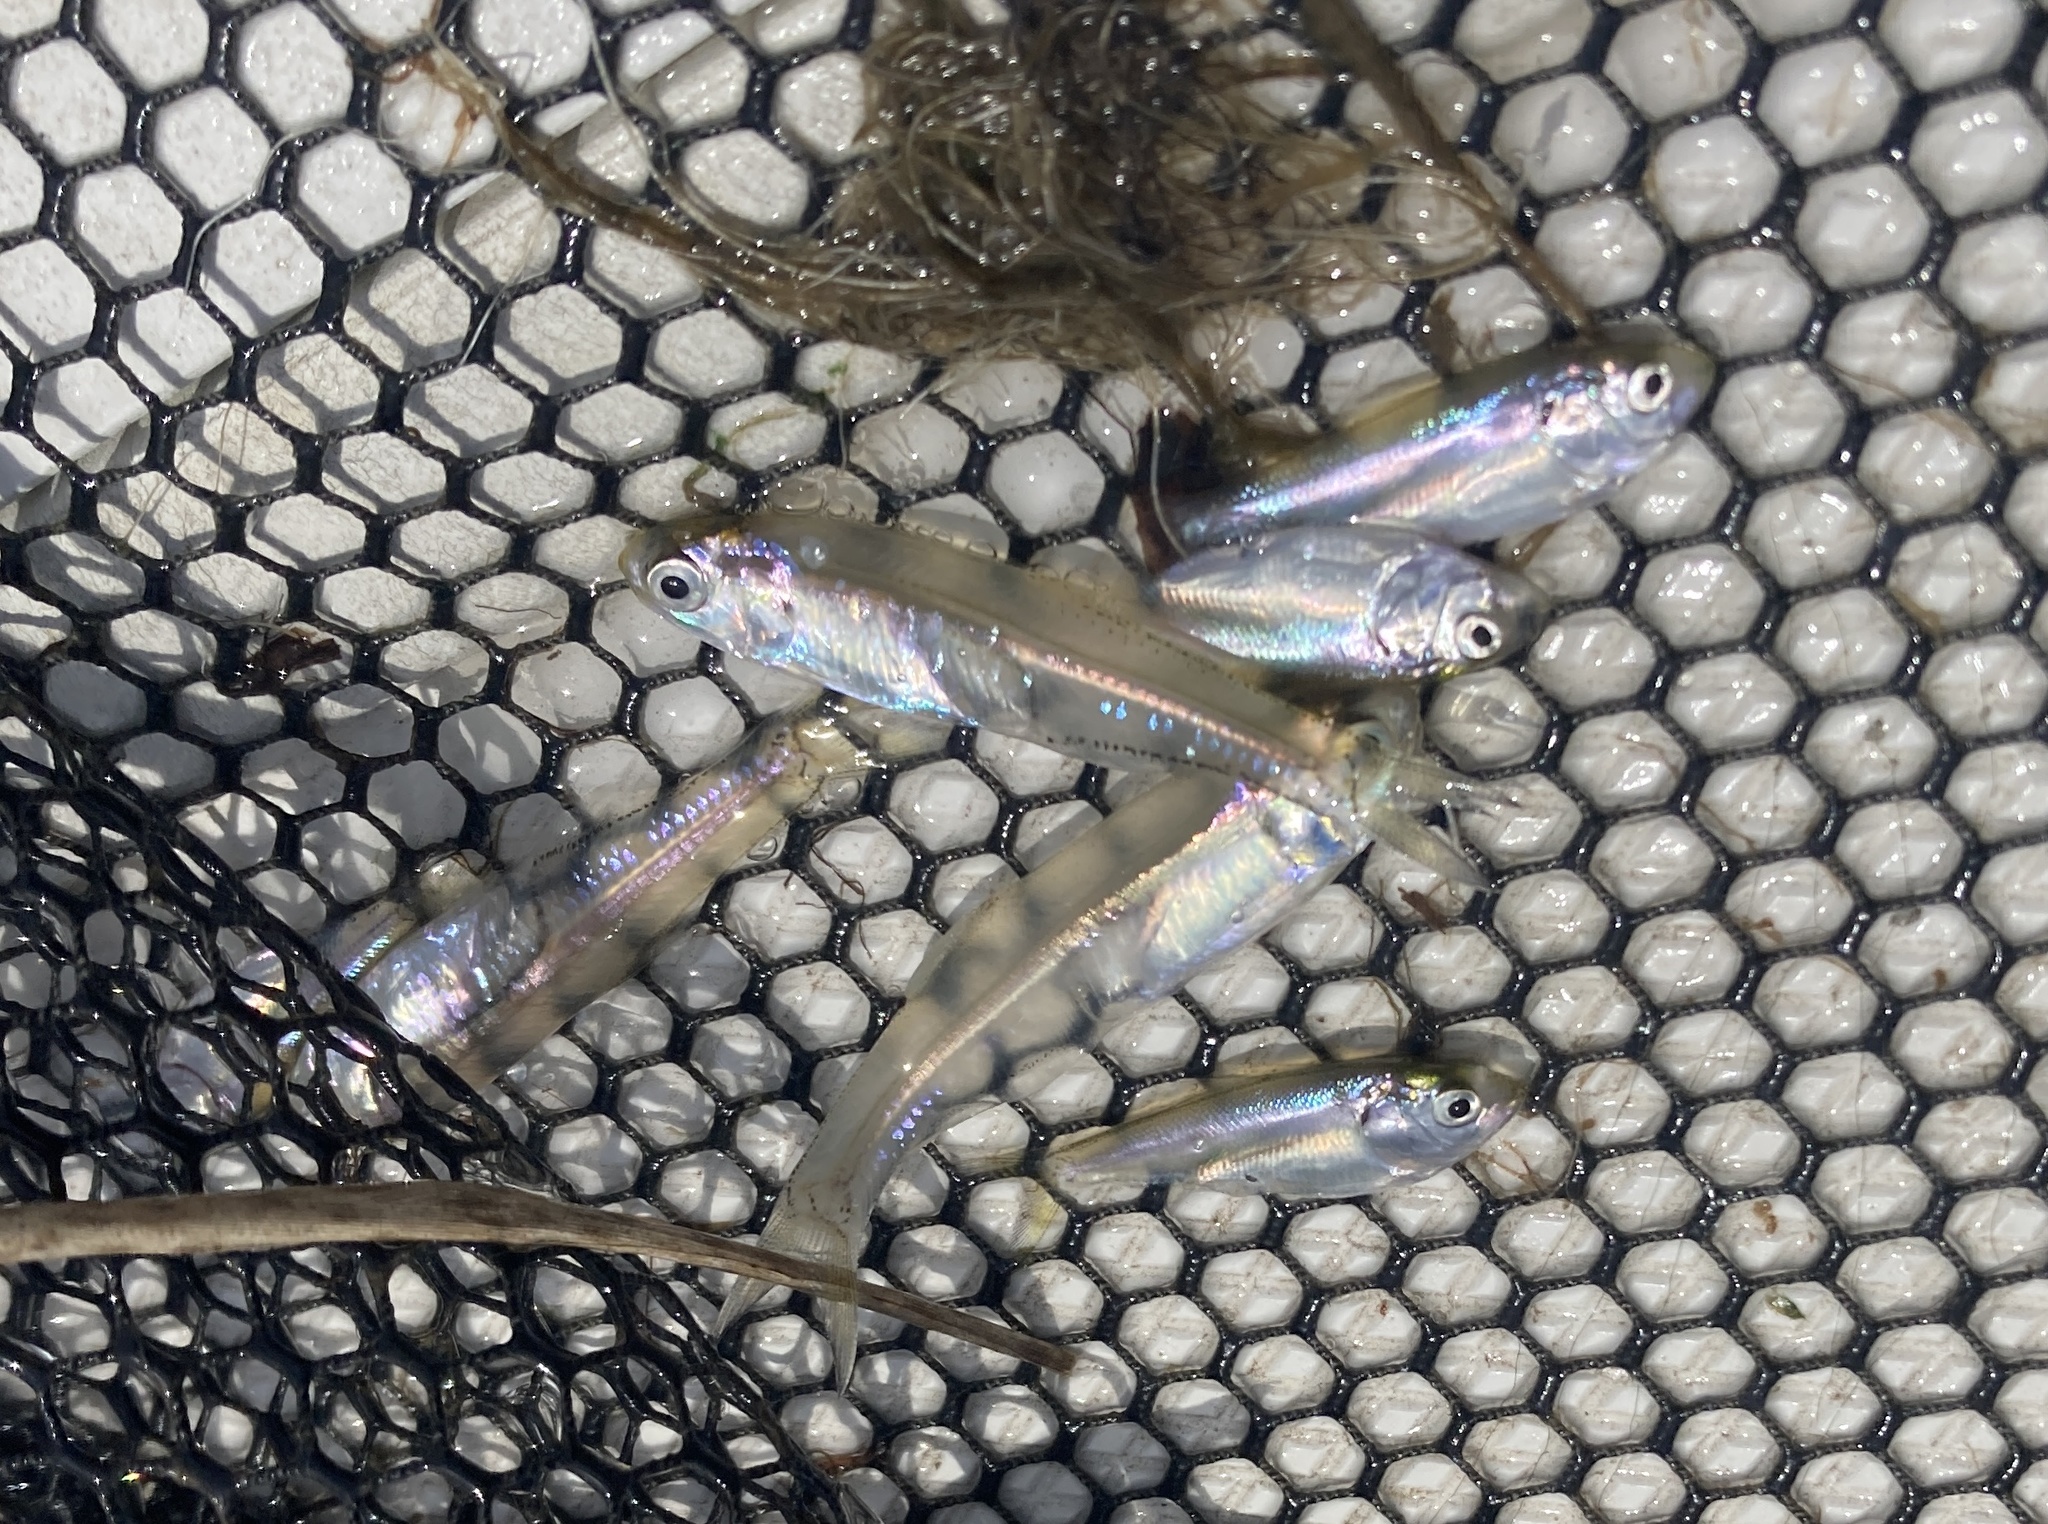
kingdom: Animalia
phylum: Chordata
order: Clupeiformes
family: Engraulidae
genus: Anchoa
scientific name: Anchoa mitchilli
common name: Bay anchovy
